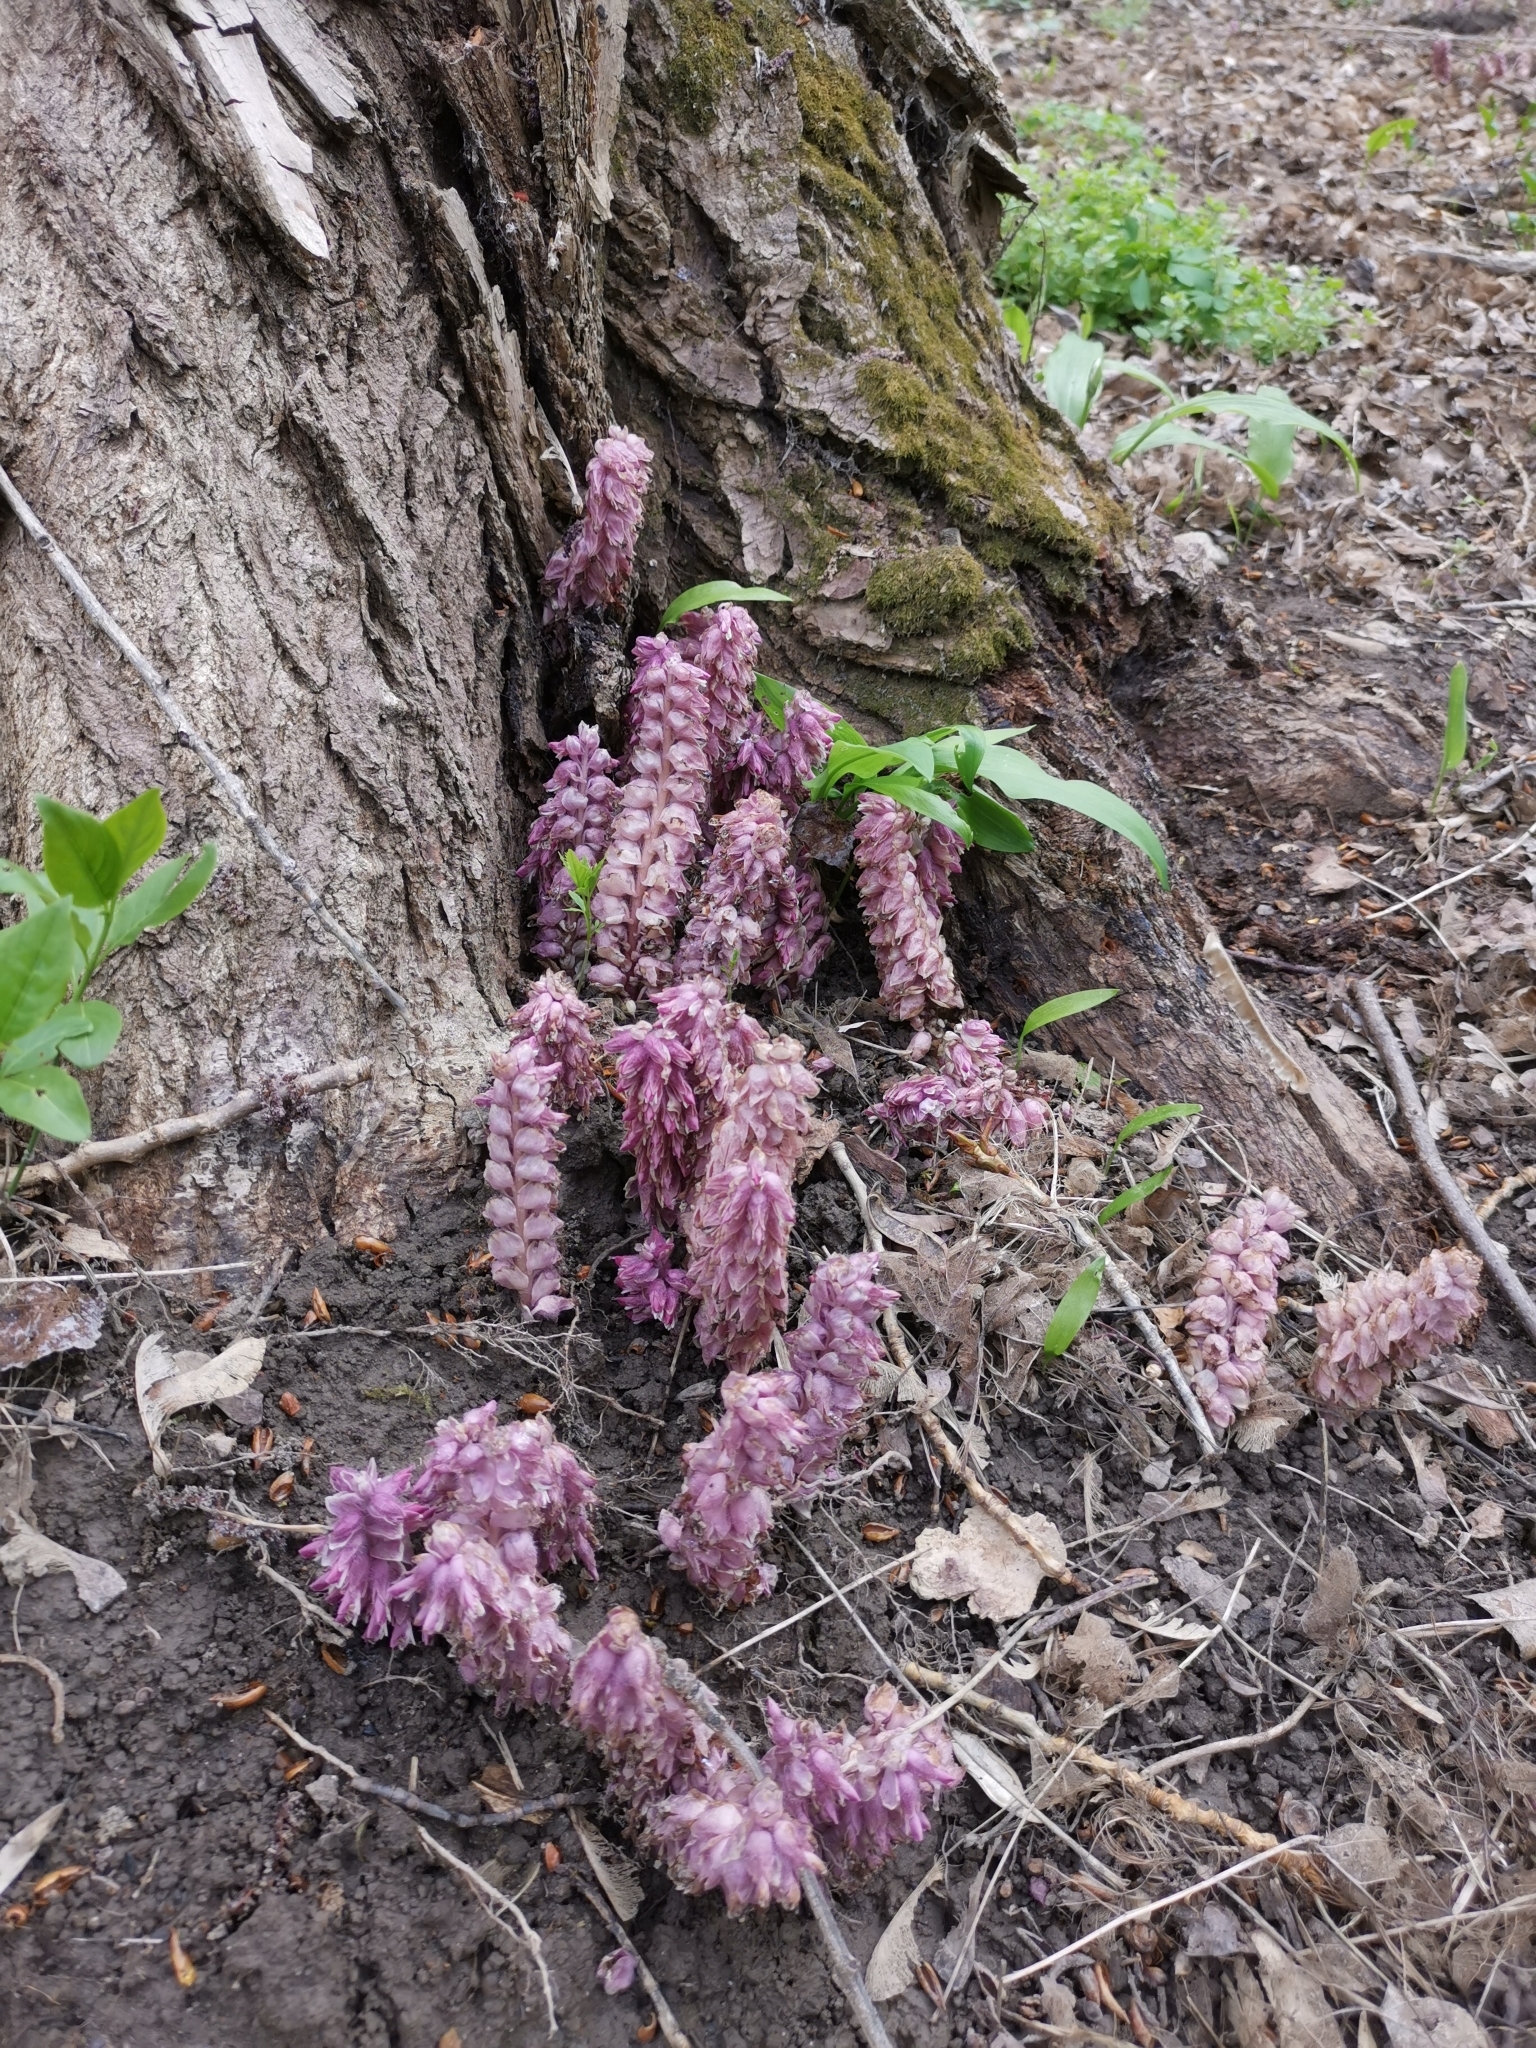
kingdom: Plantae
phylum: Tracheophyta
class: Magnoliopsida
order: Lamiales
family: Orobanchaceae
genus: Lathraea
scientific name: Lathraea squamaria
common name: Toothwort
